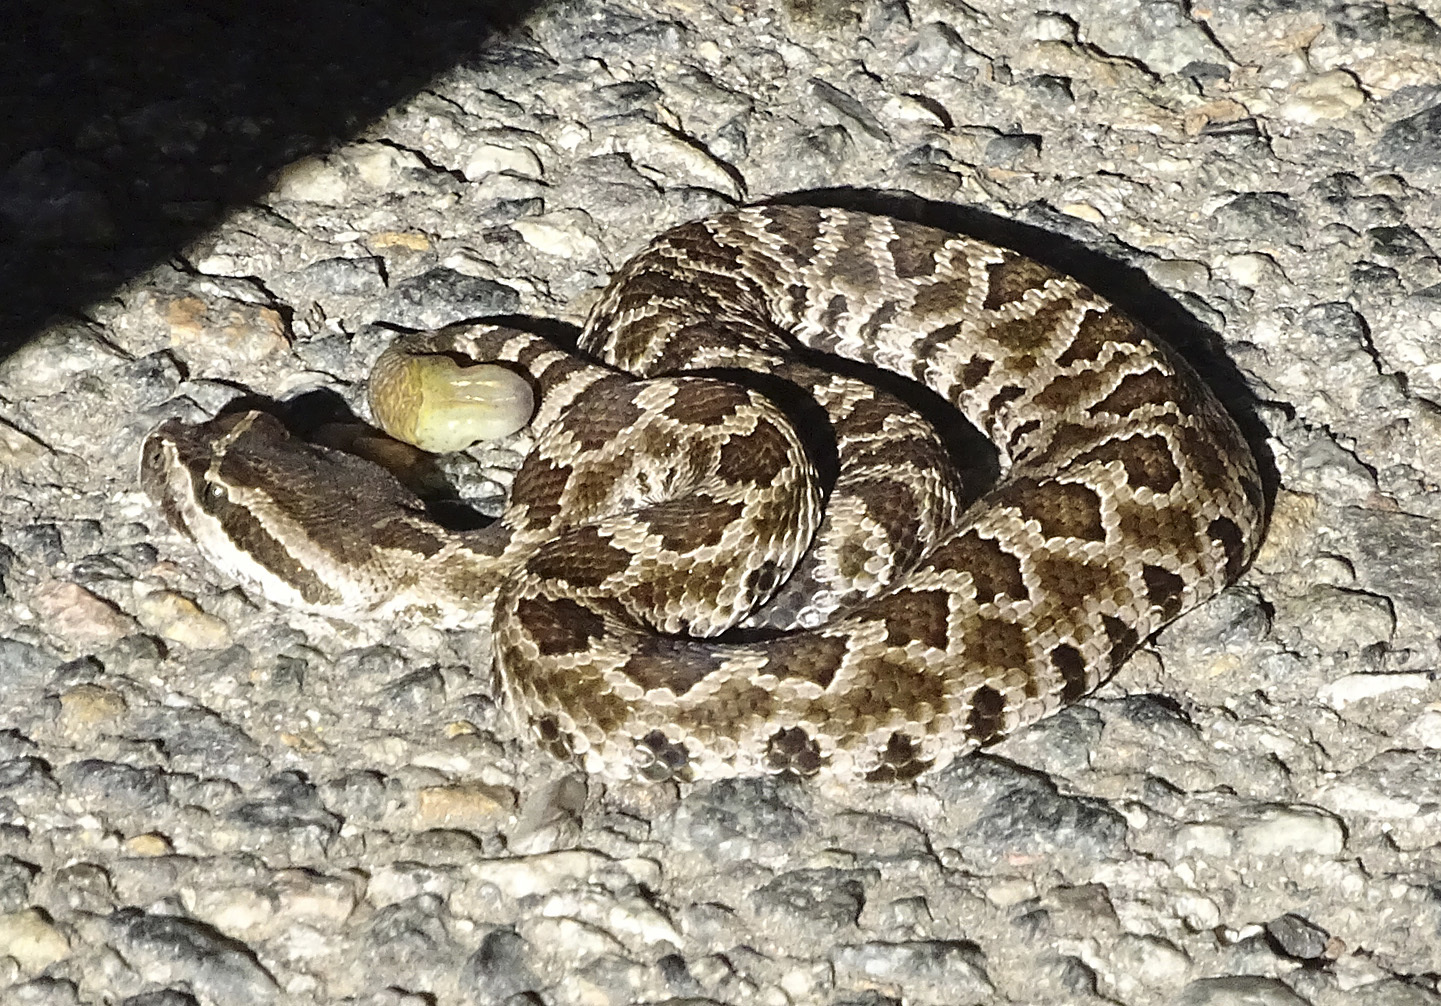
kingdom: Animalia
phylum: Chordata
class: Squamata
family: Viperidae
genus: Crotalus
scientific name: Crotalus oreganus
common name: Abyssus
